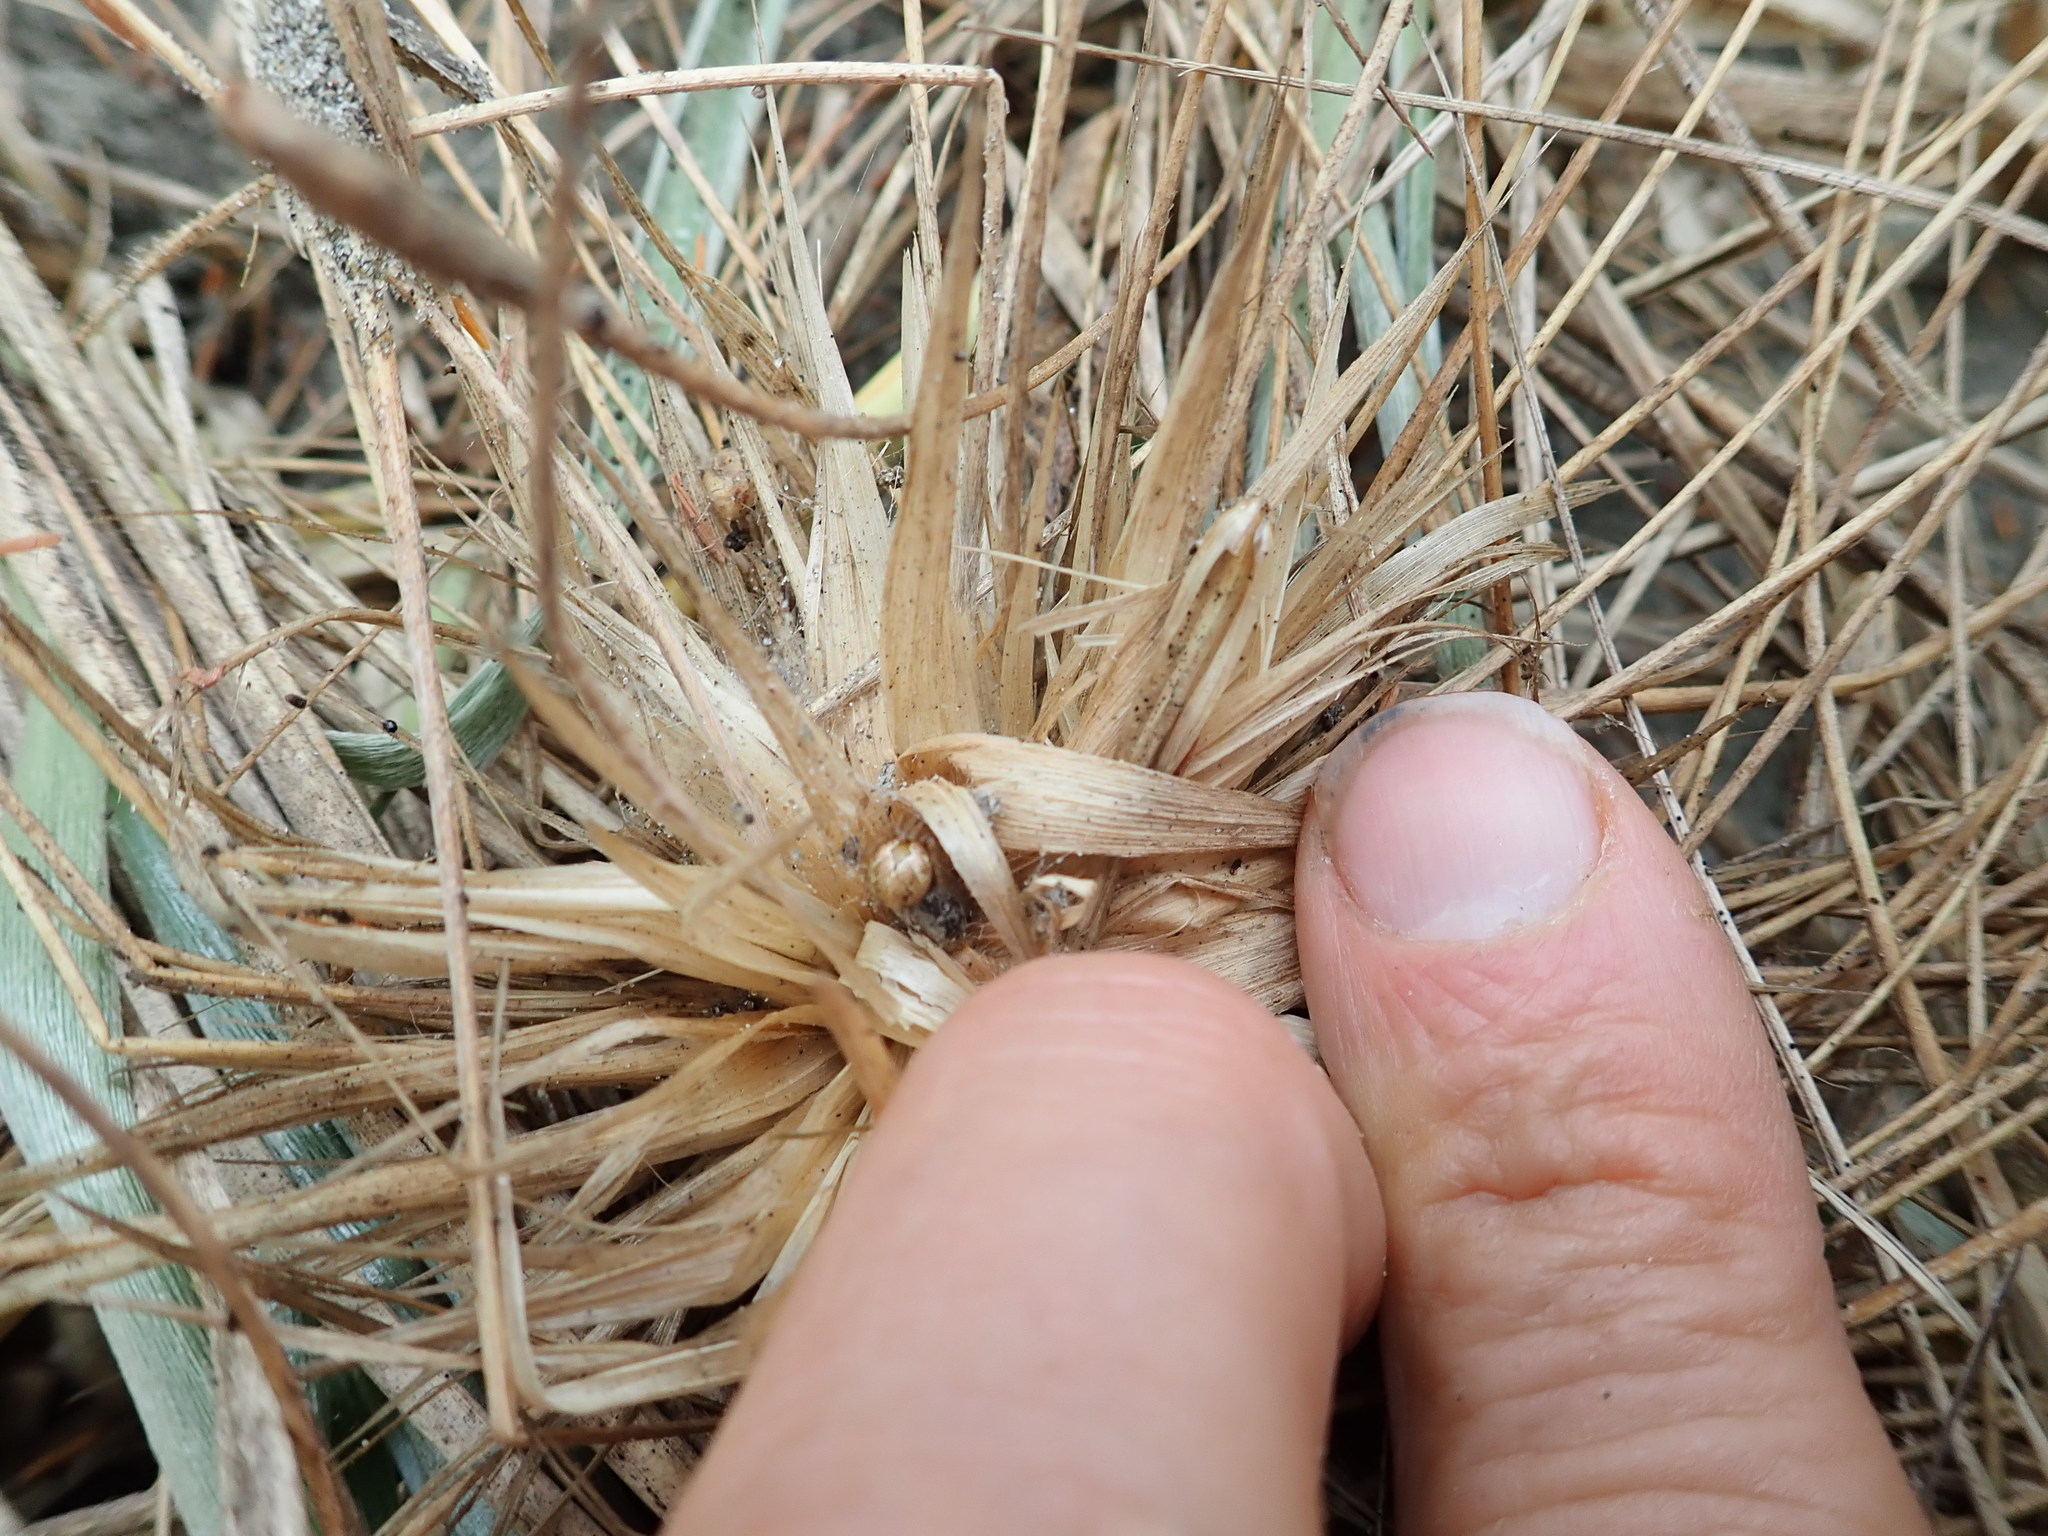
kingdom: Animalia
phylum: Arthropoda
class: Arachnida
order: Araneae
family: Theridiidae
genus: Cryptachaea
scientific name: Cryptachaea veruculata
